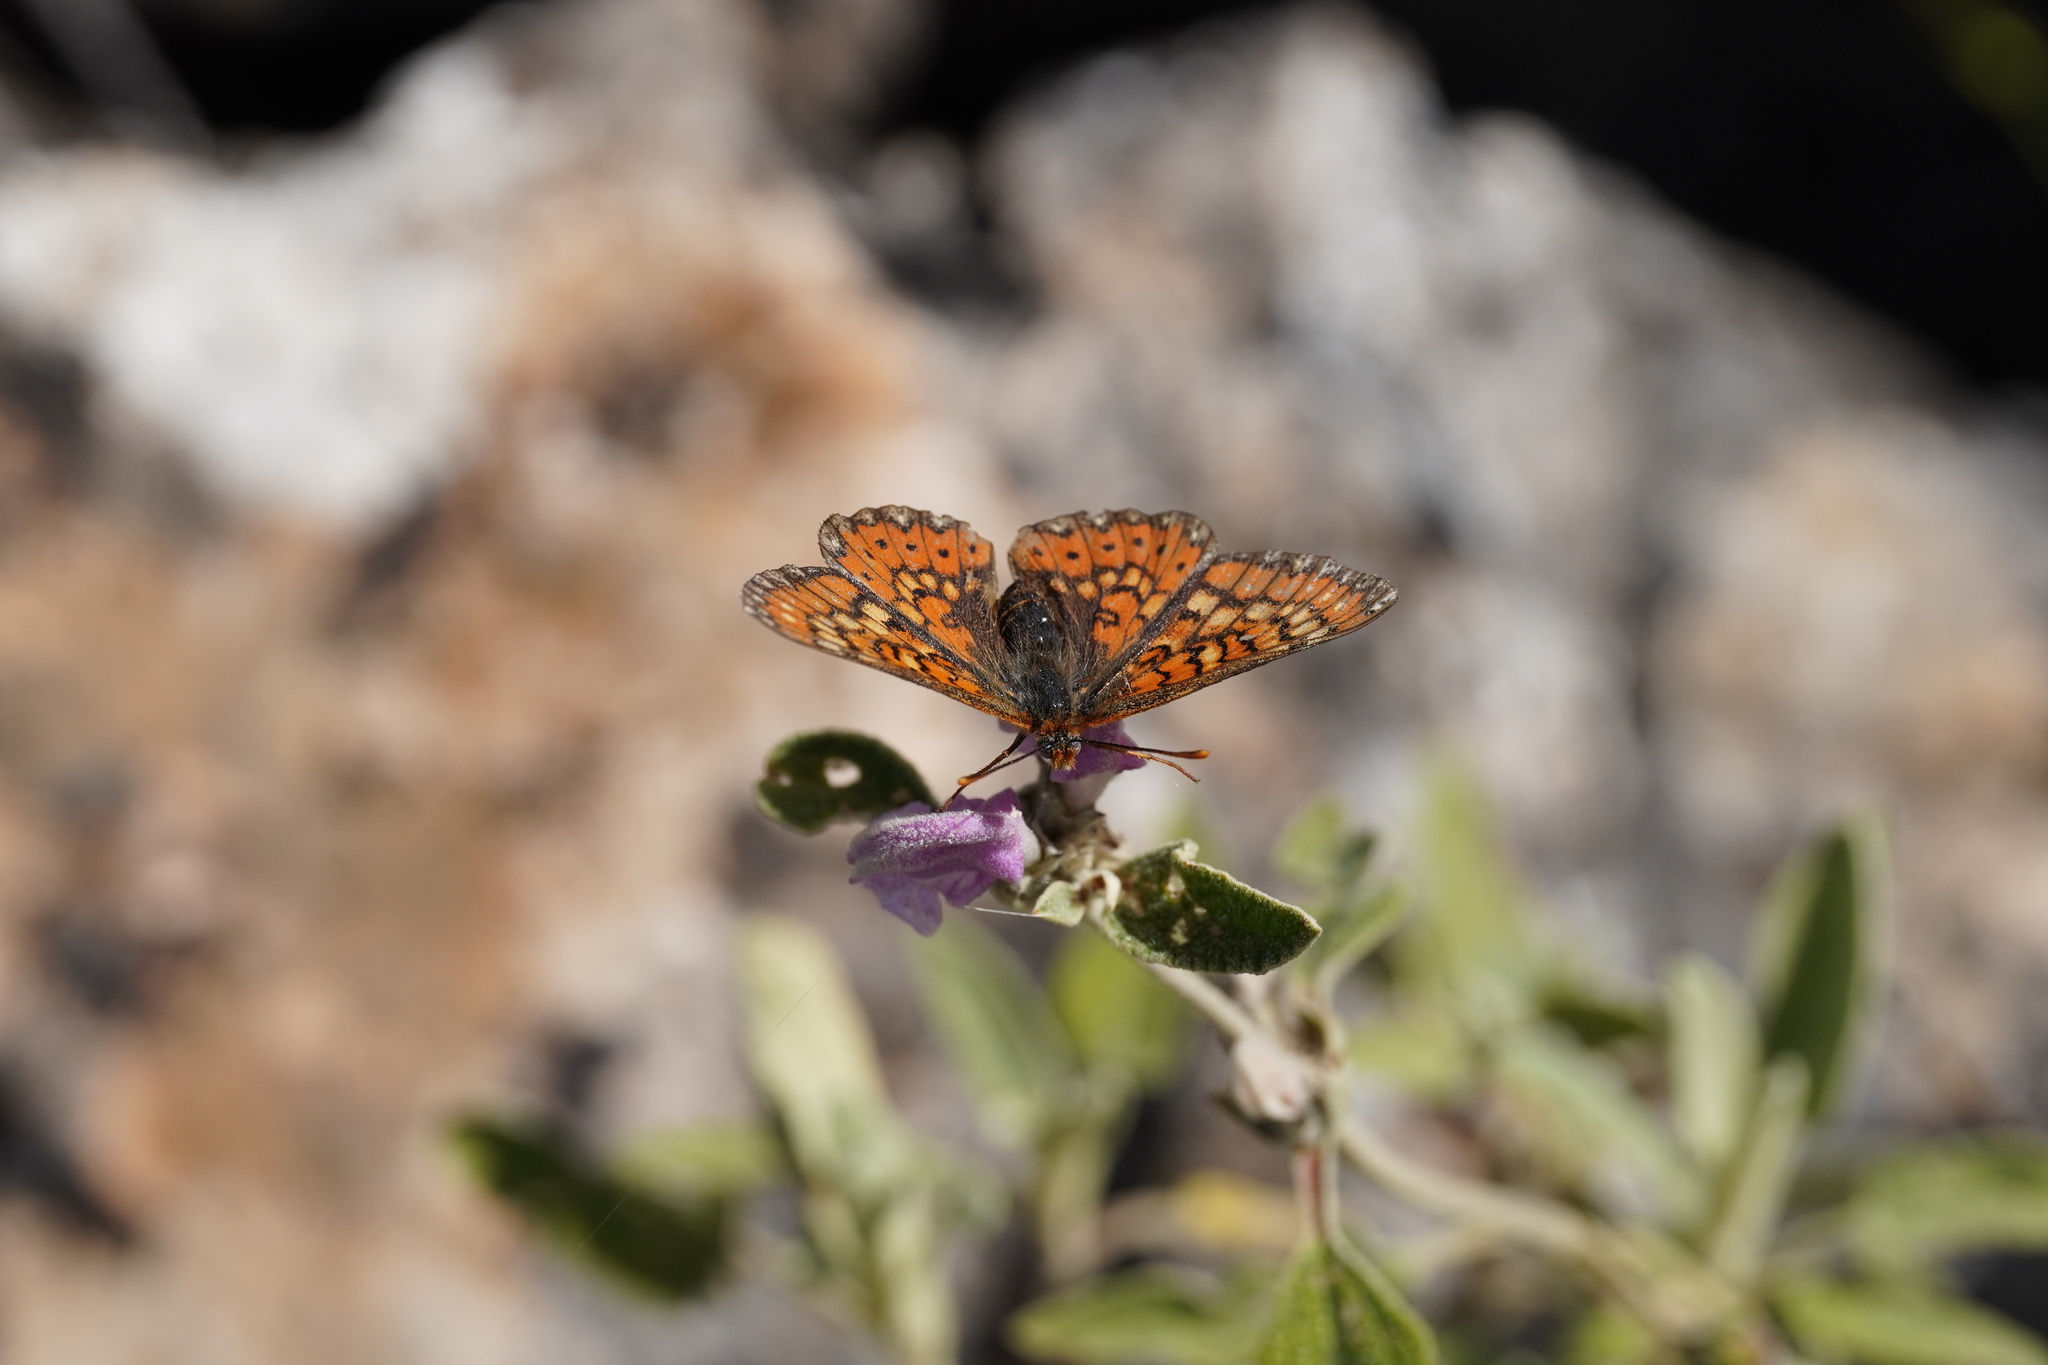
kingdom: Animalia
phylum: Arthropoda
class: Insecta
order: Lepidoptera
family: Nymphalidae
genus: Euphydryas
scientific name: Euphydryas desfontainii
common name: Spanish fritillary
